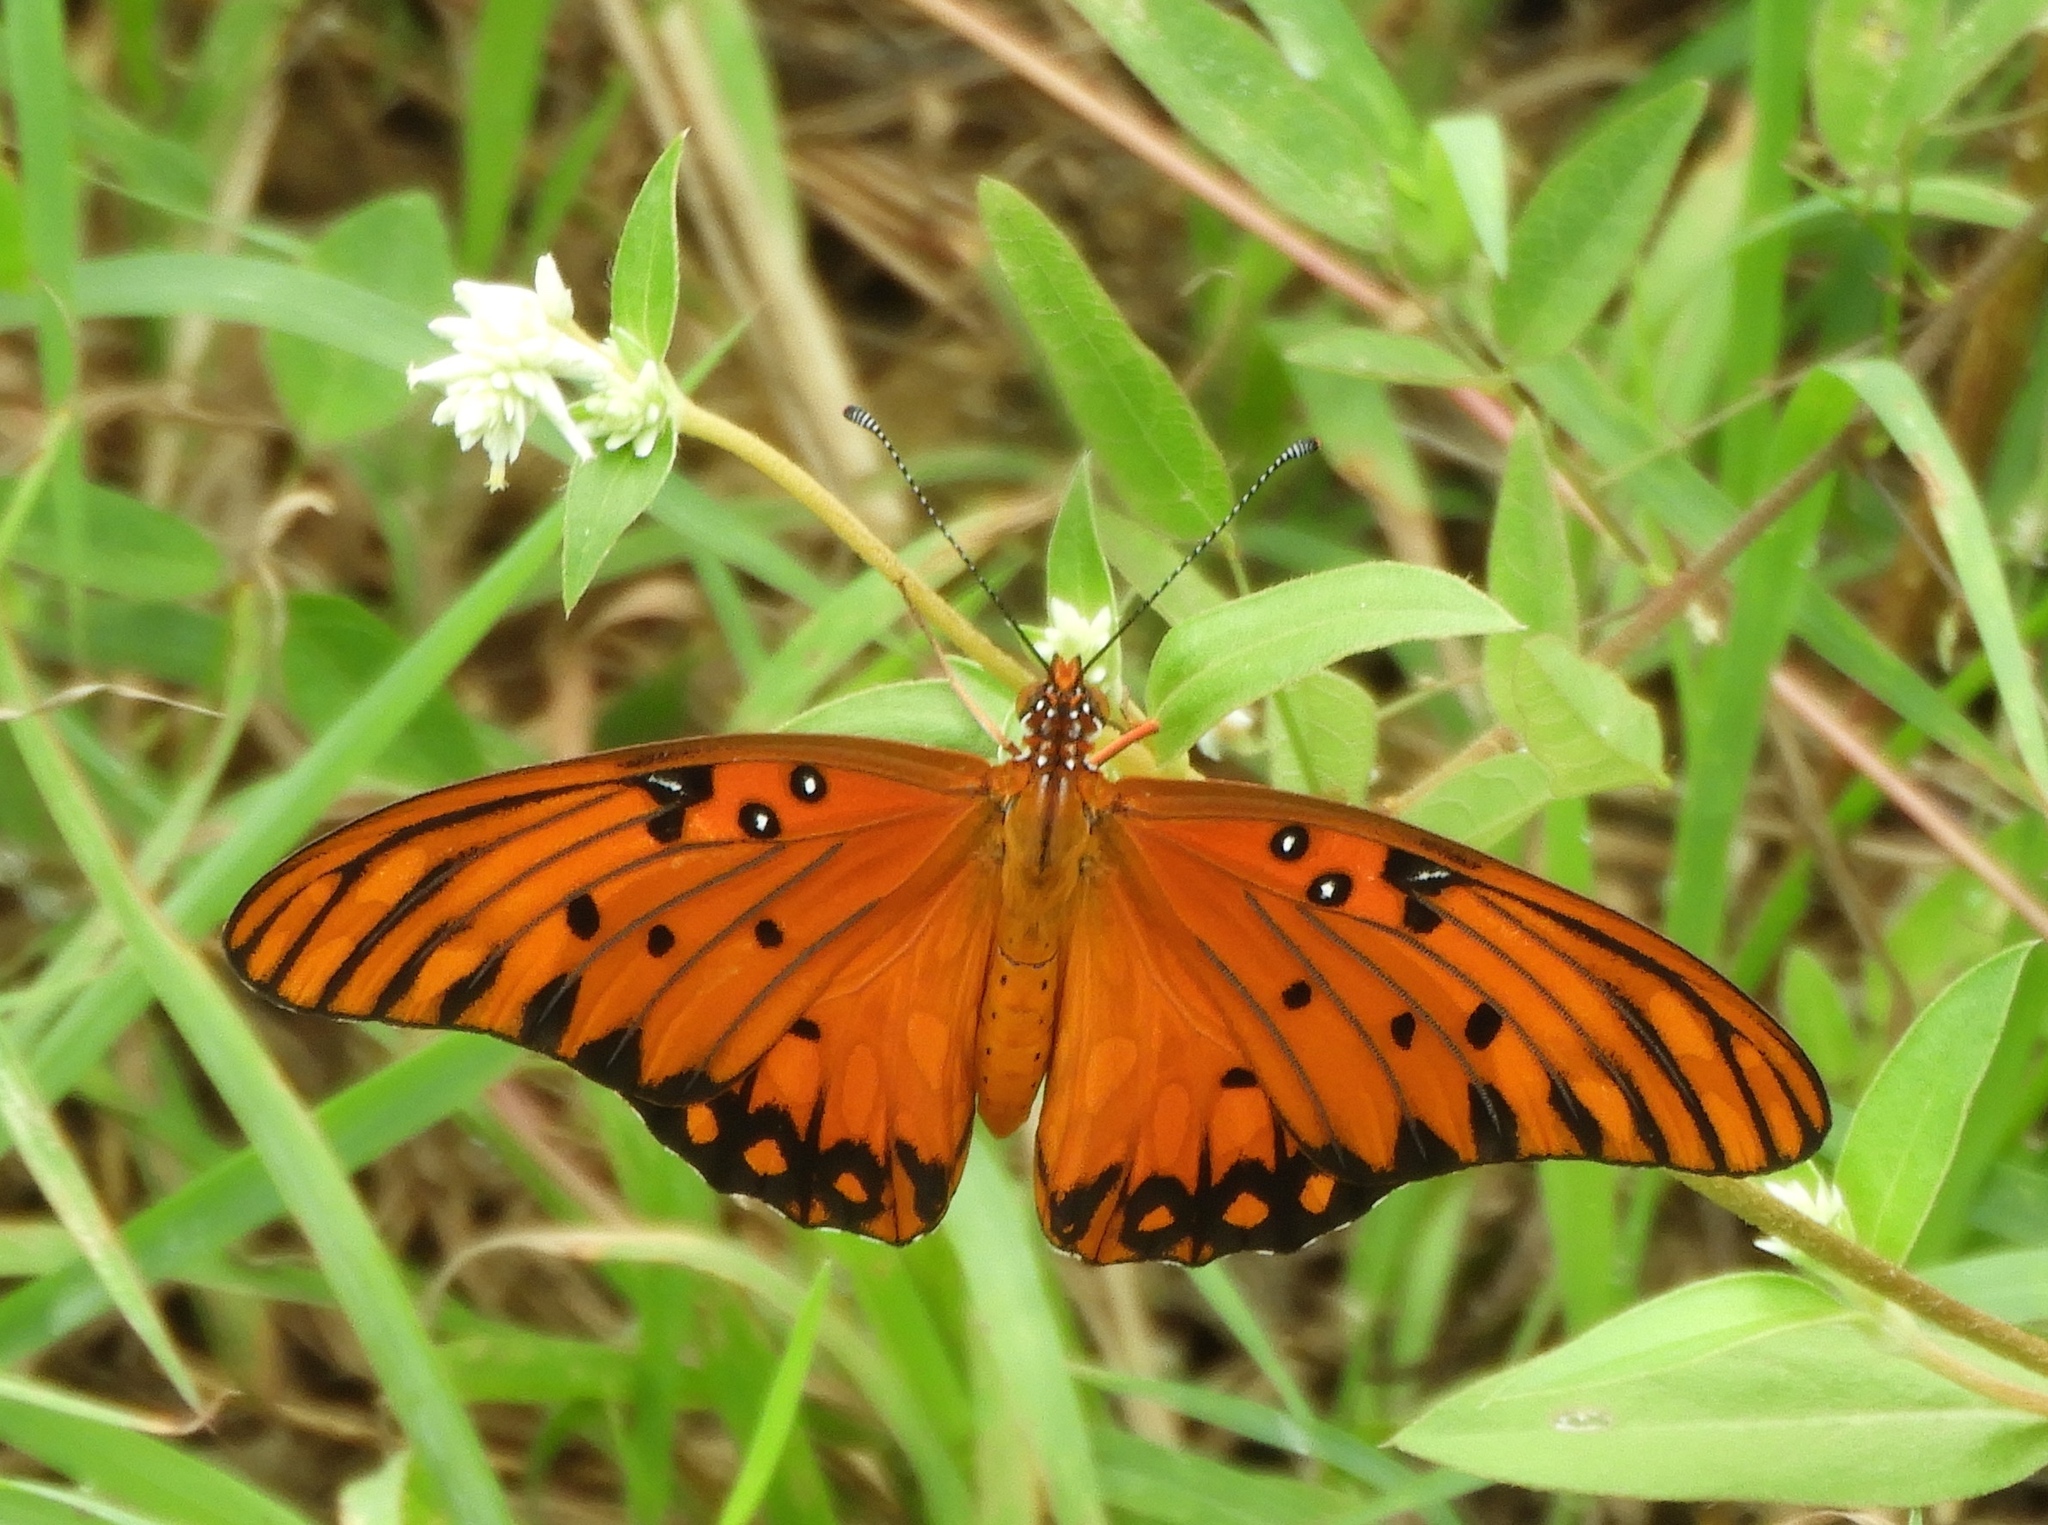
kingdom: Animalia
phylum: Arthropoda
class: Insecta
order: Lepidoptera
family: Nymphalidae
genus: Dione
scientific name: Dione vanillae
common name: Gulf fritillary
